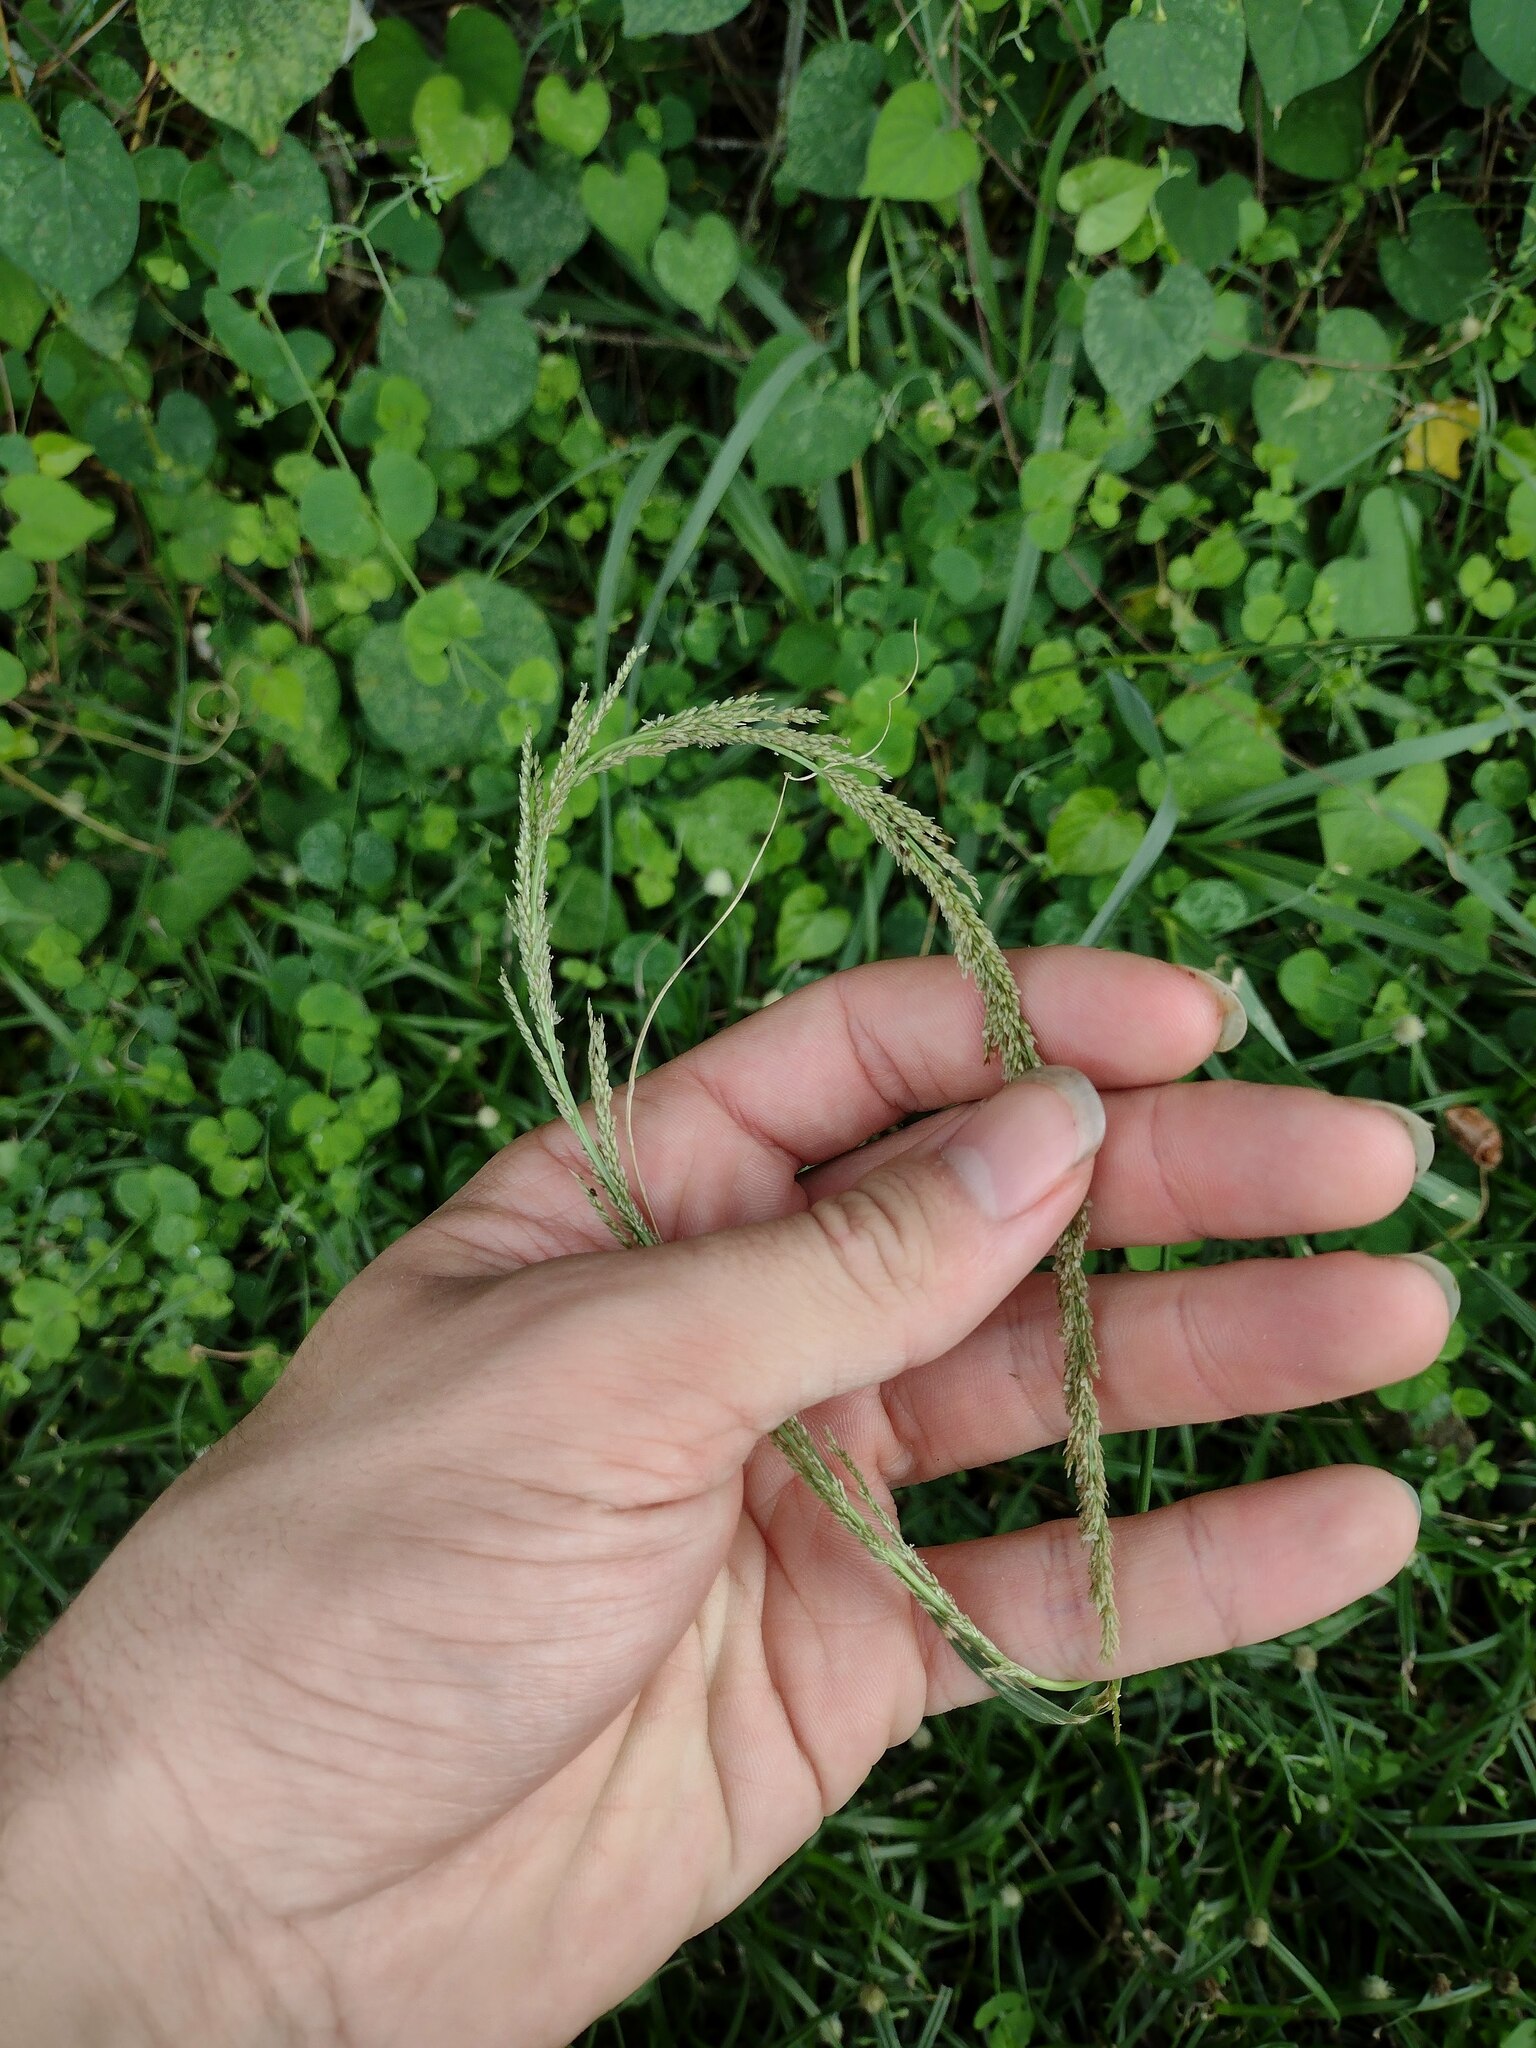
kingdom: Plantae
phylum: Tracheophyta
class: Liliopsida
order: Poales
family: Poaceae
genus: Sporobolus
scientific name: Sporobolus elongatus
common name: Rat tail grass
